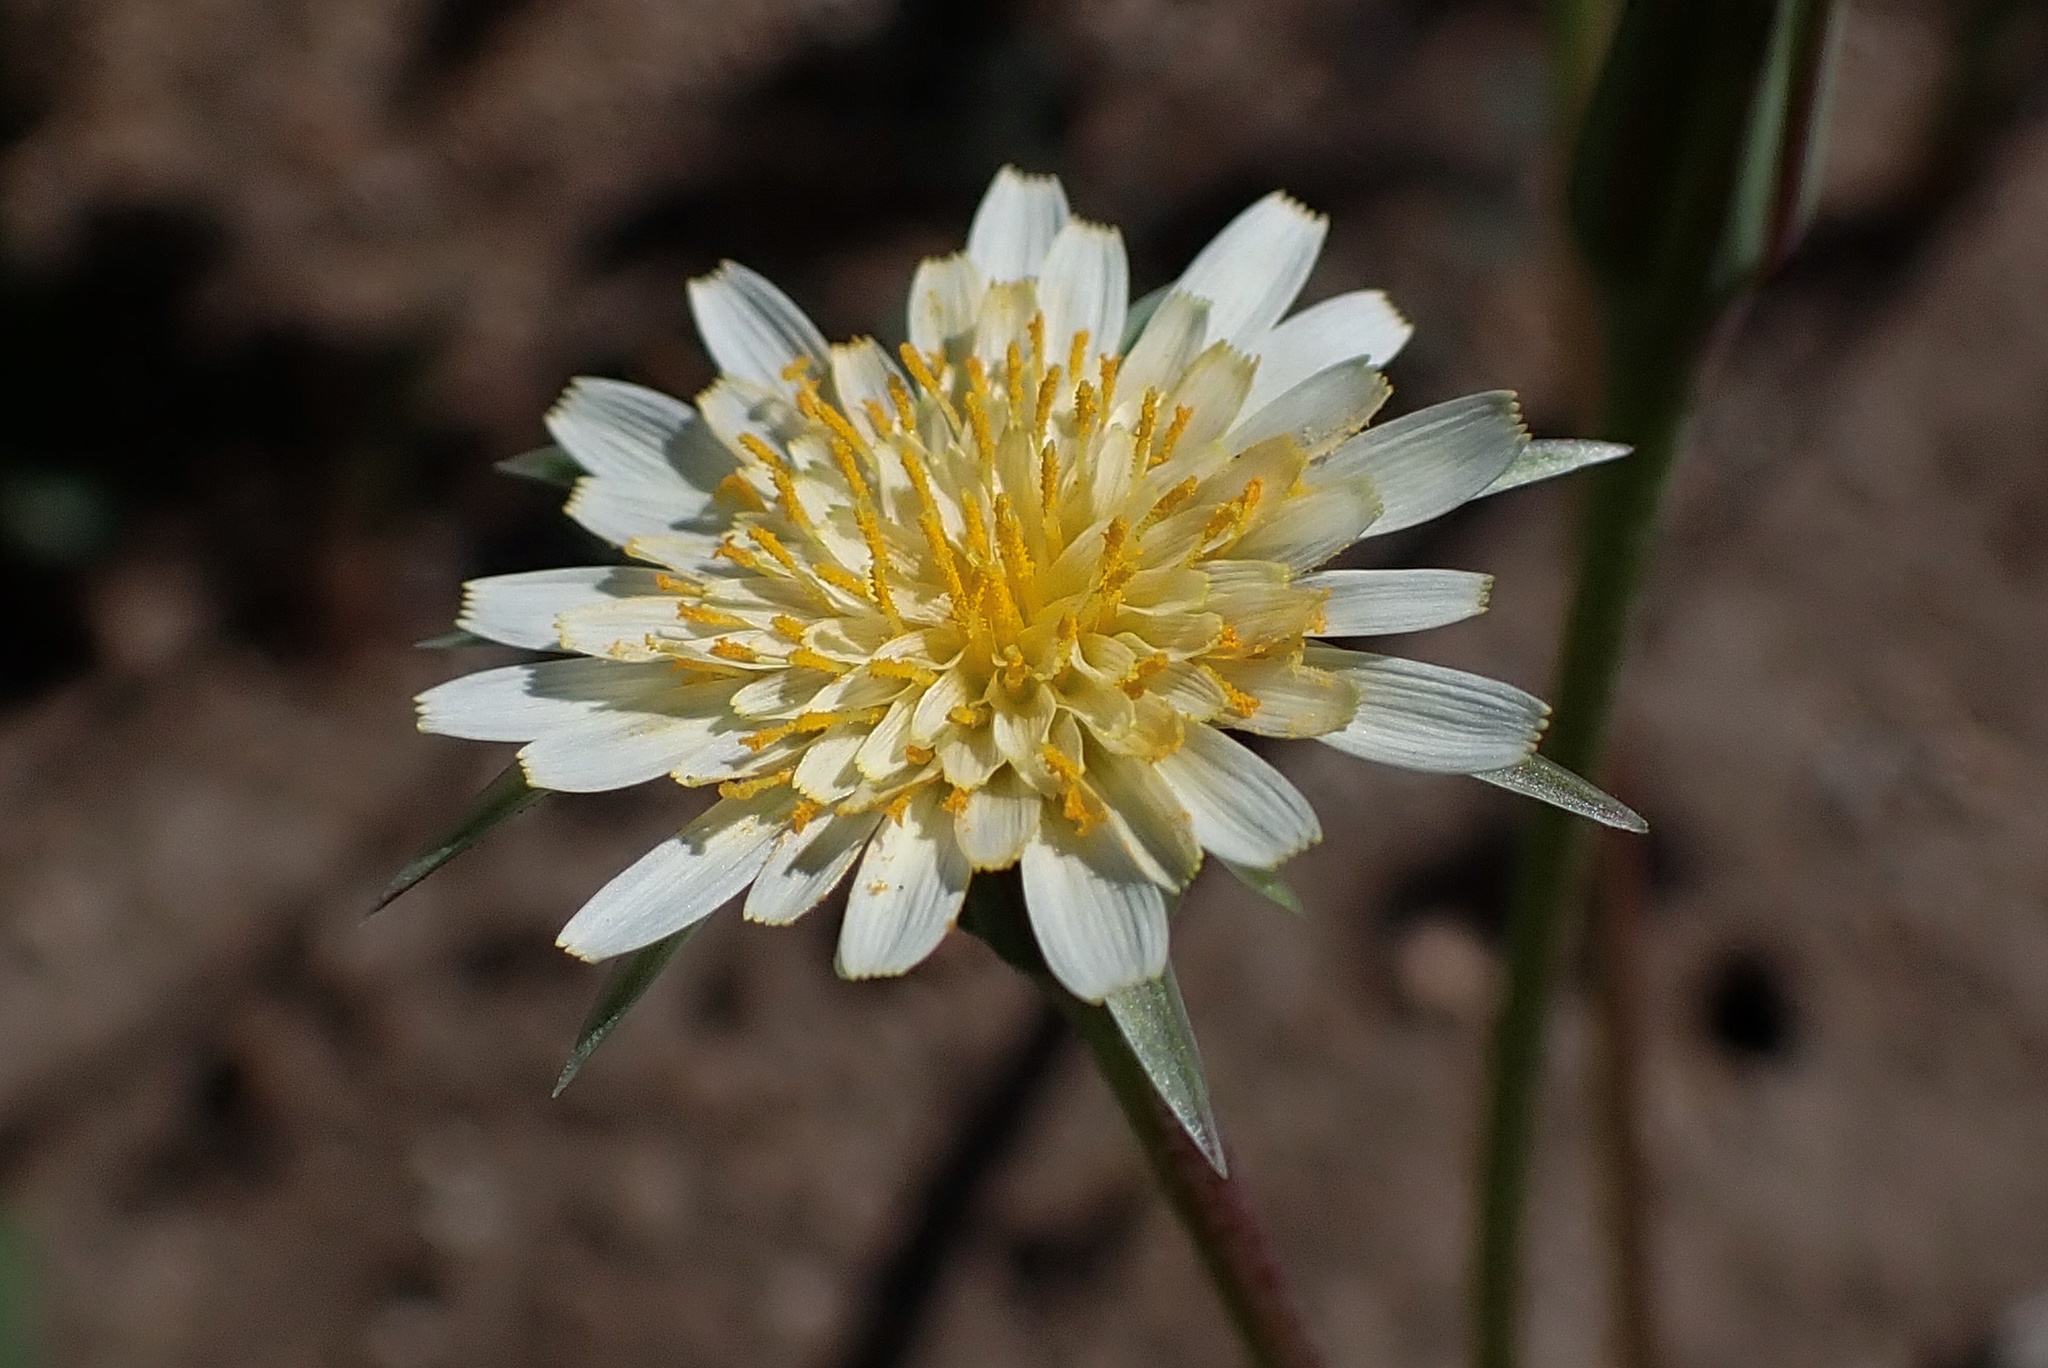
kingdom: Plantae
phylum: Tracheophyta
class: Magnoliopsida
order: Asterales
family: Asteraceae
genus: Microseris
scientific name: Microseris lindleyi
